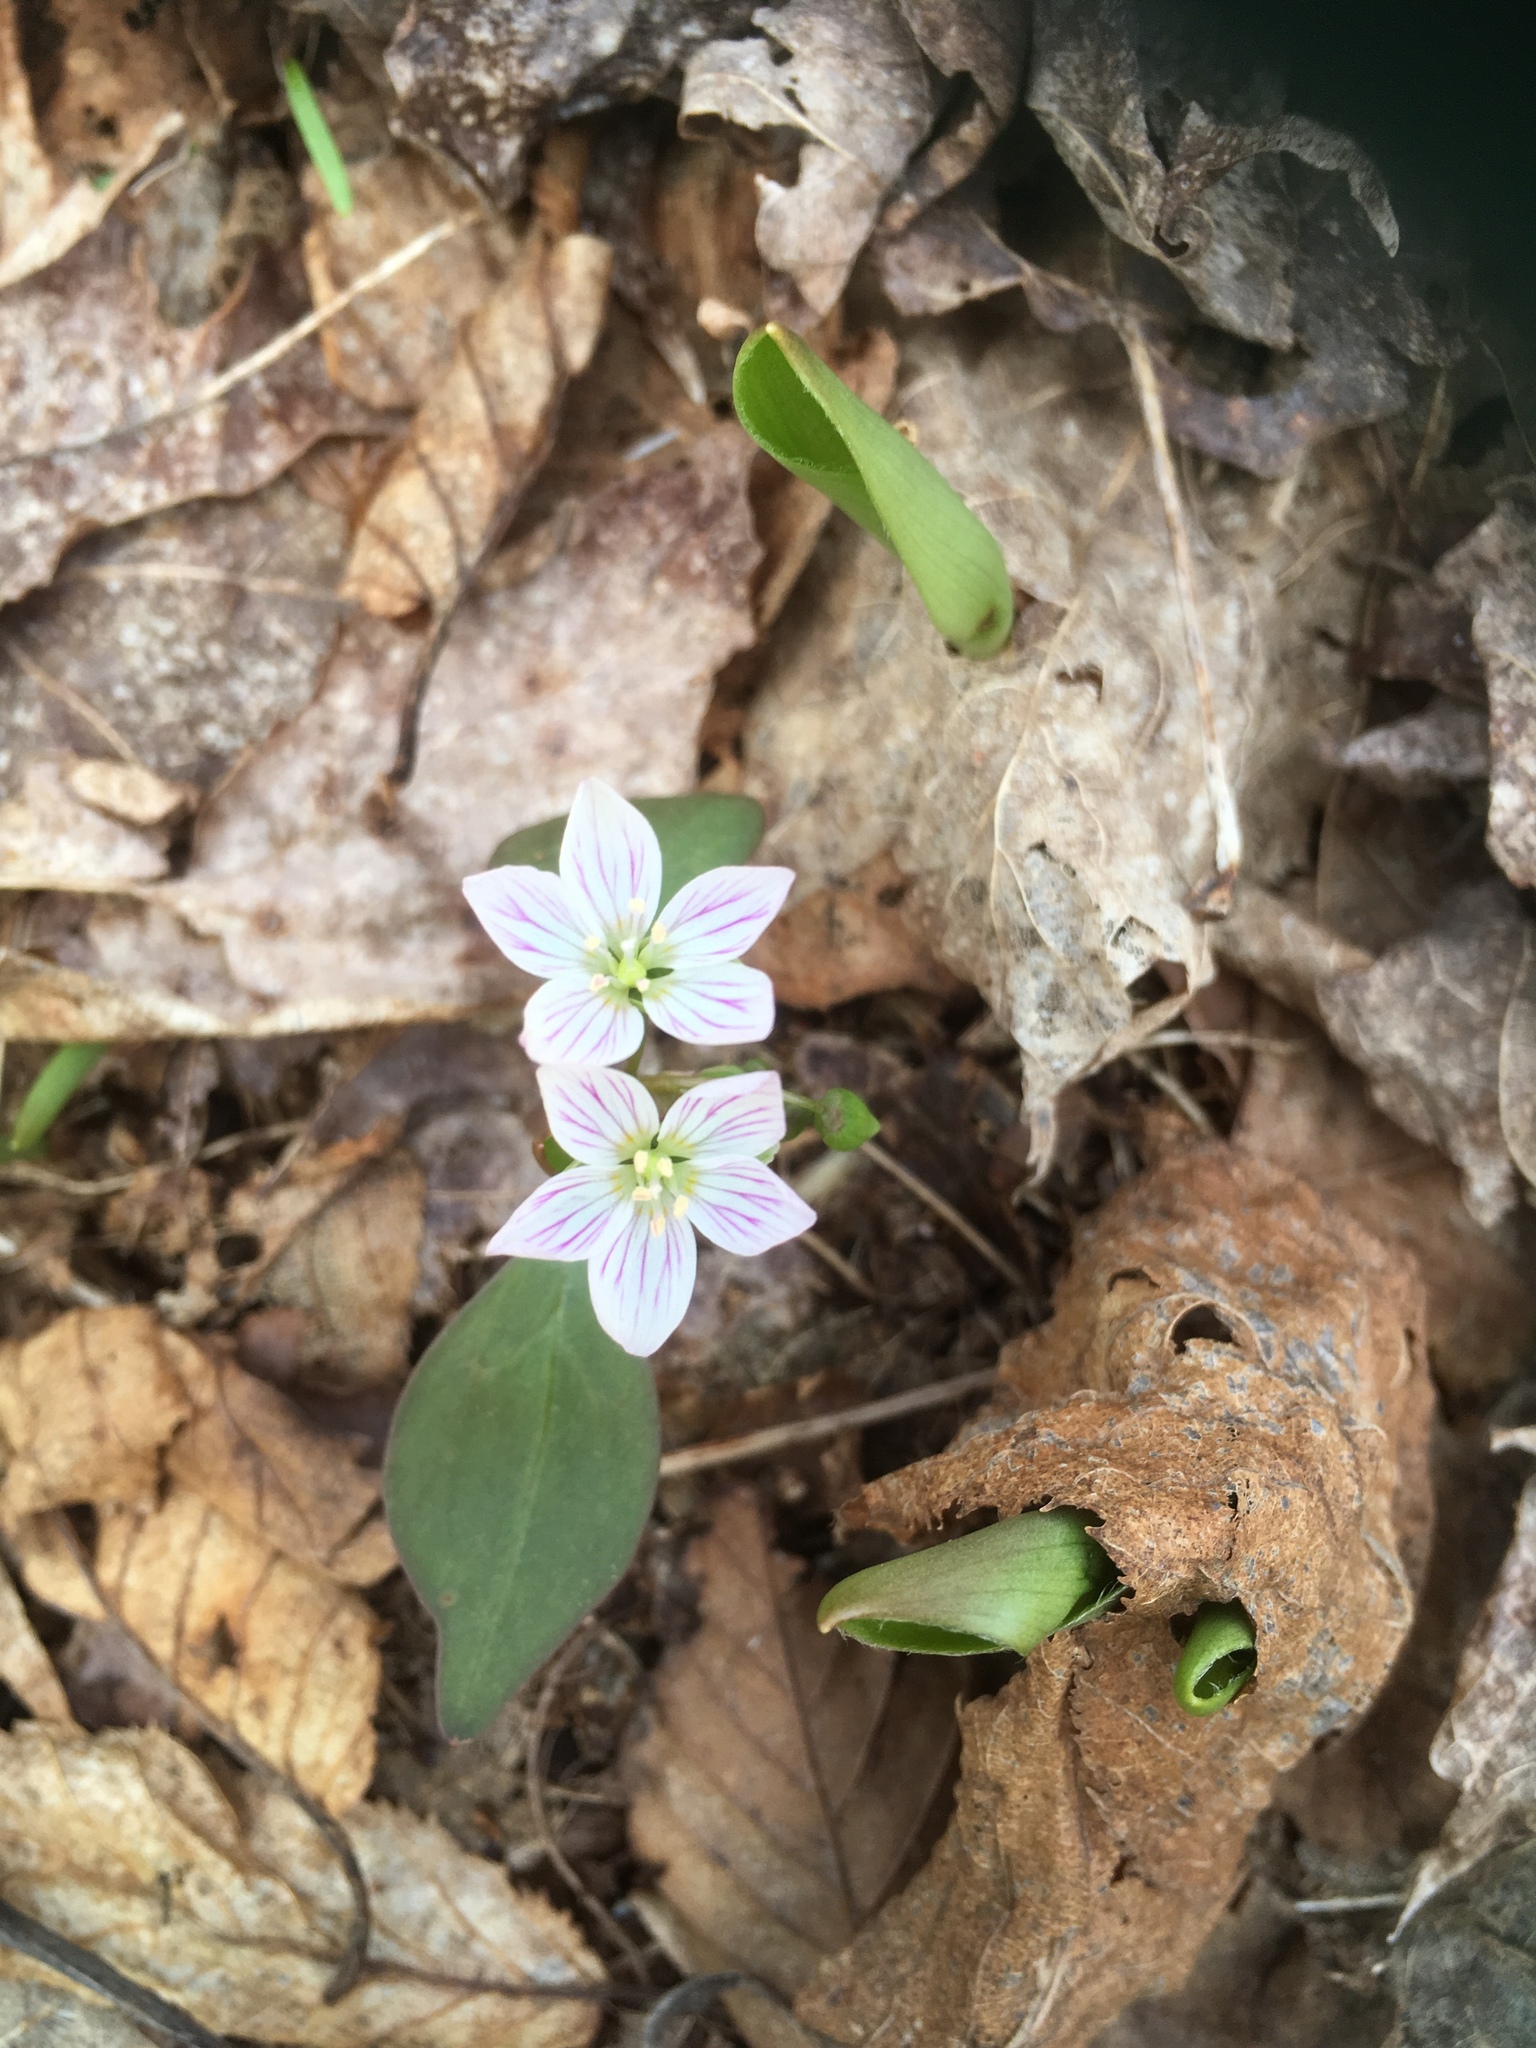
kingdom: Plantae
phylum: Tracheophyta
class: Magnoliopsida
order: Caryophyllales
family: Montiaceae
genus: Claytonia
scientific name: Claytonia caroliniana
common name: Carolina spring beauty
